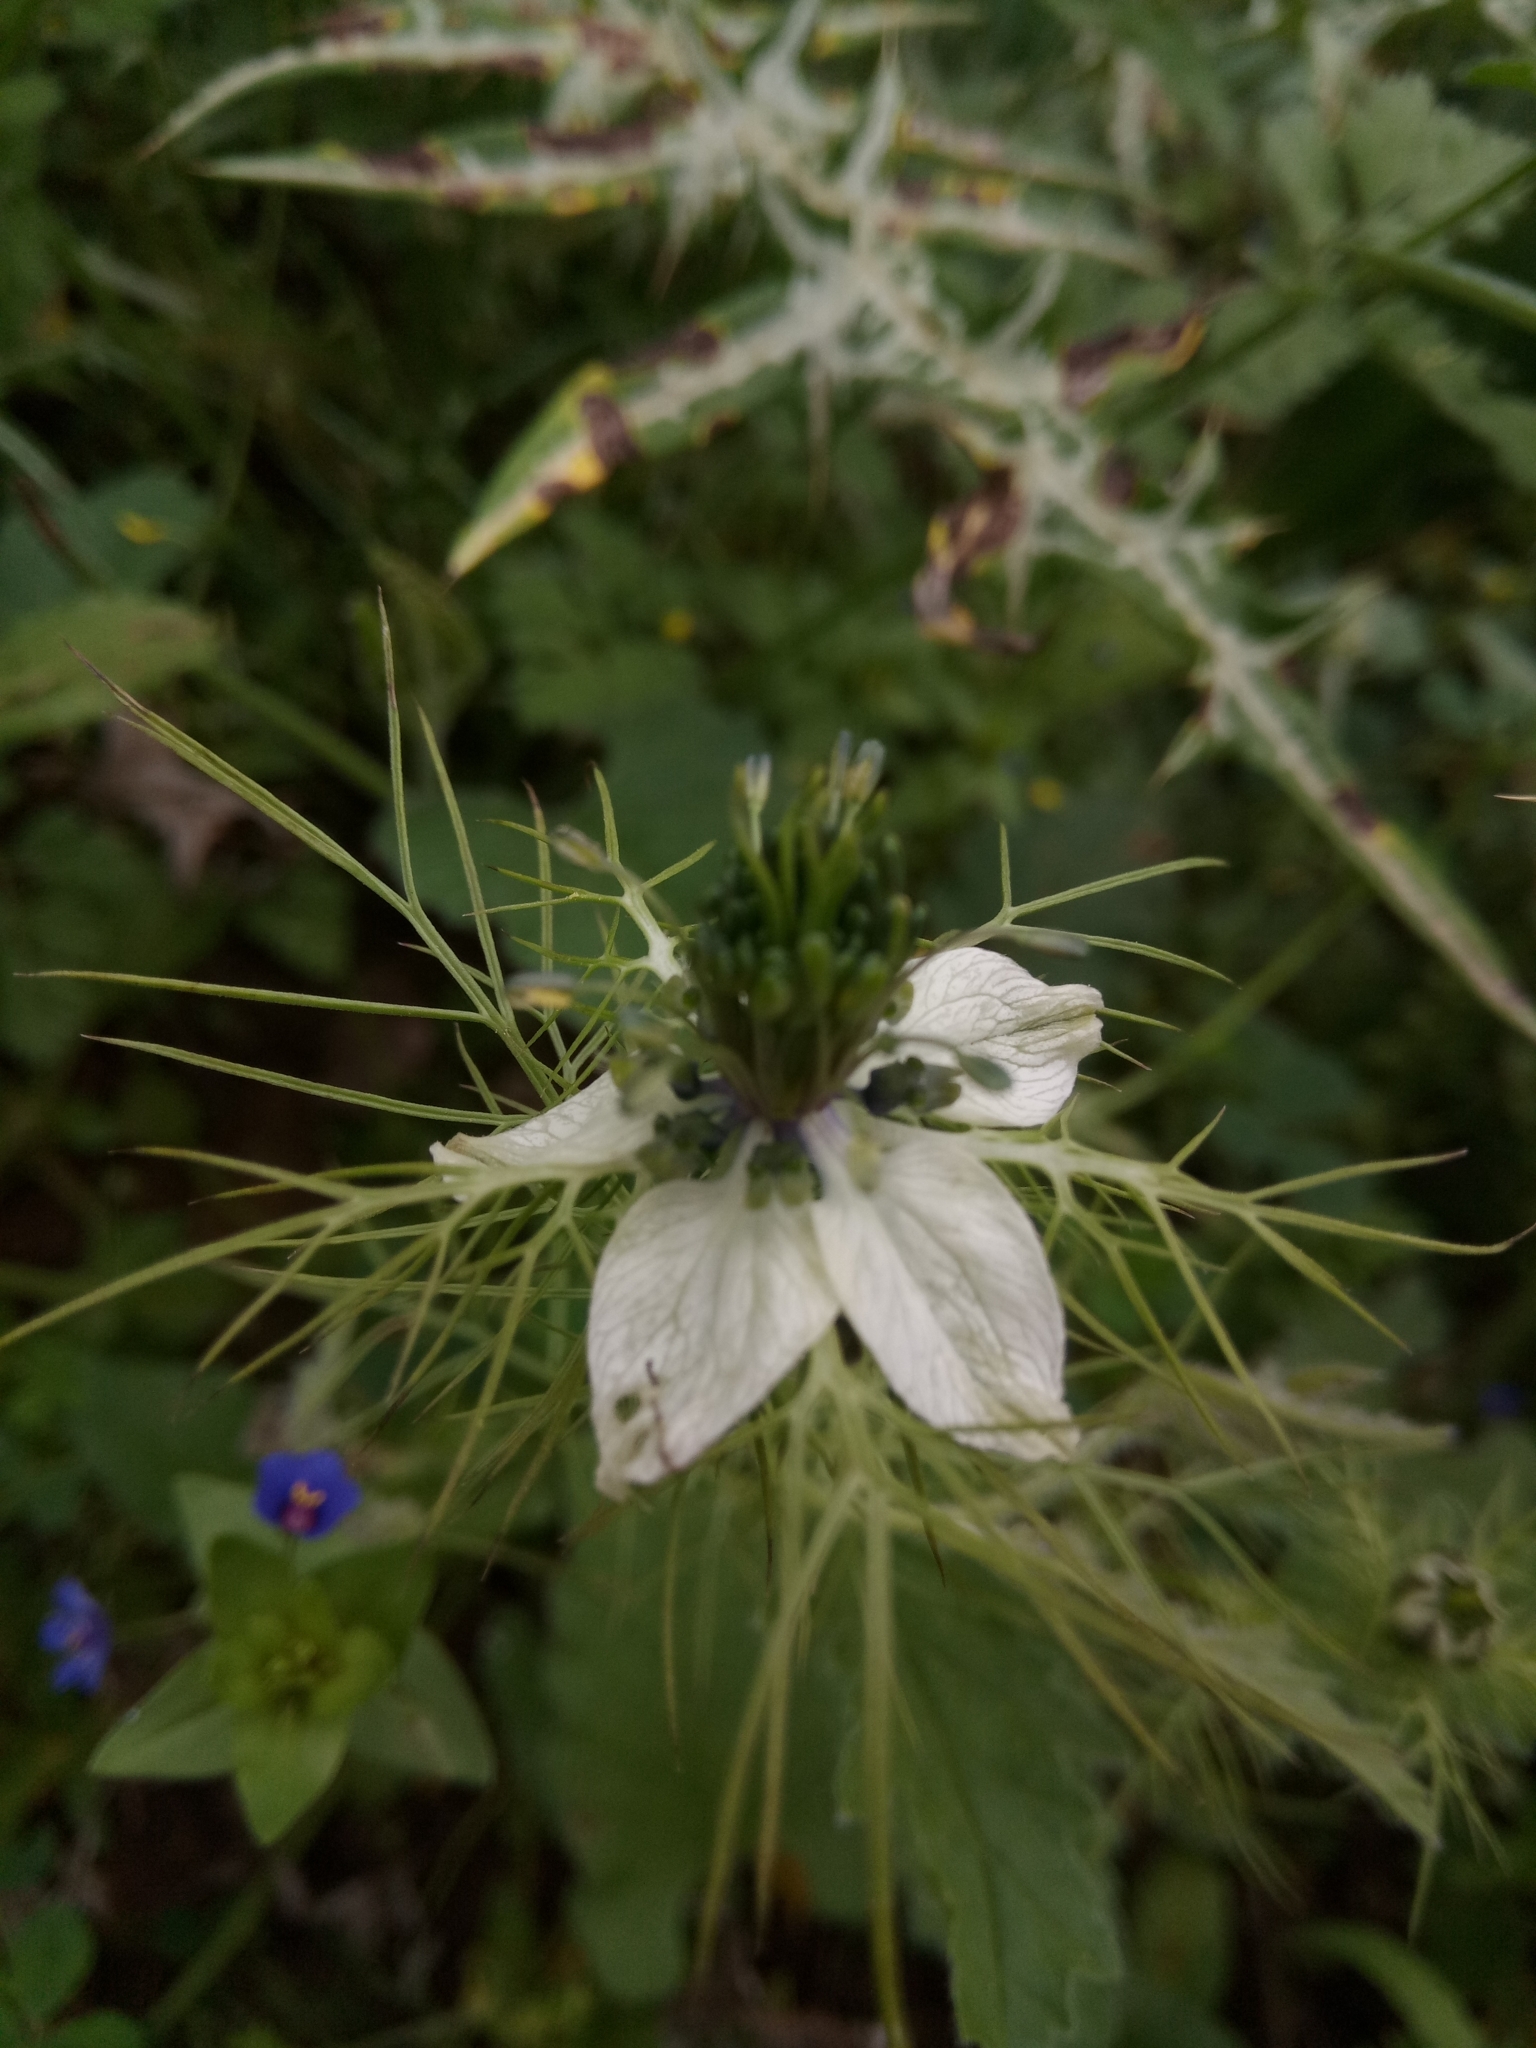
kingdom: Plantae
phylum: Tracheophyta
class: Magnoliopsida
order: Ranunculales
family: Ranunculaceae
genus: Nigella
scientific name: Nigella damascena
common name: Love-in-a-mist
